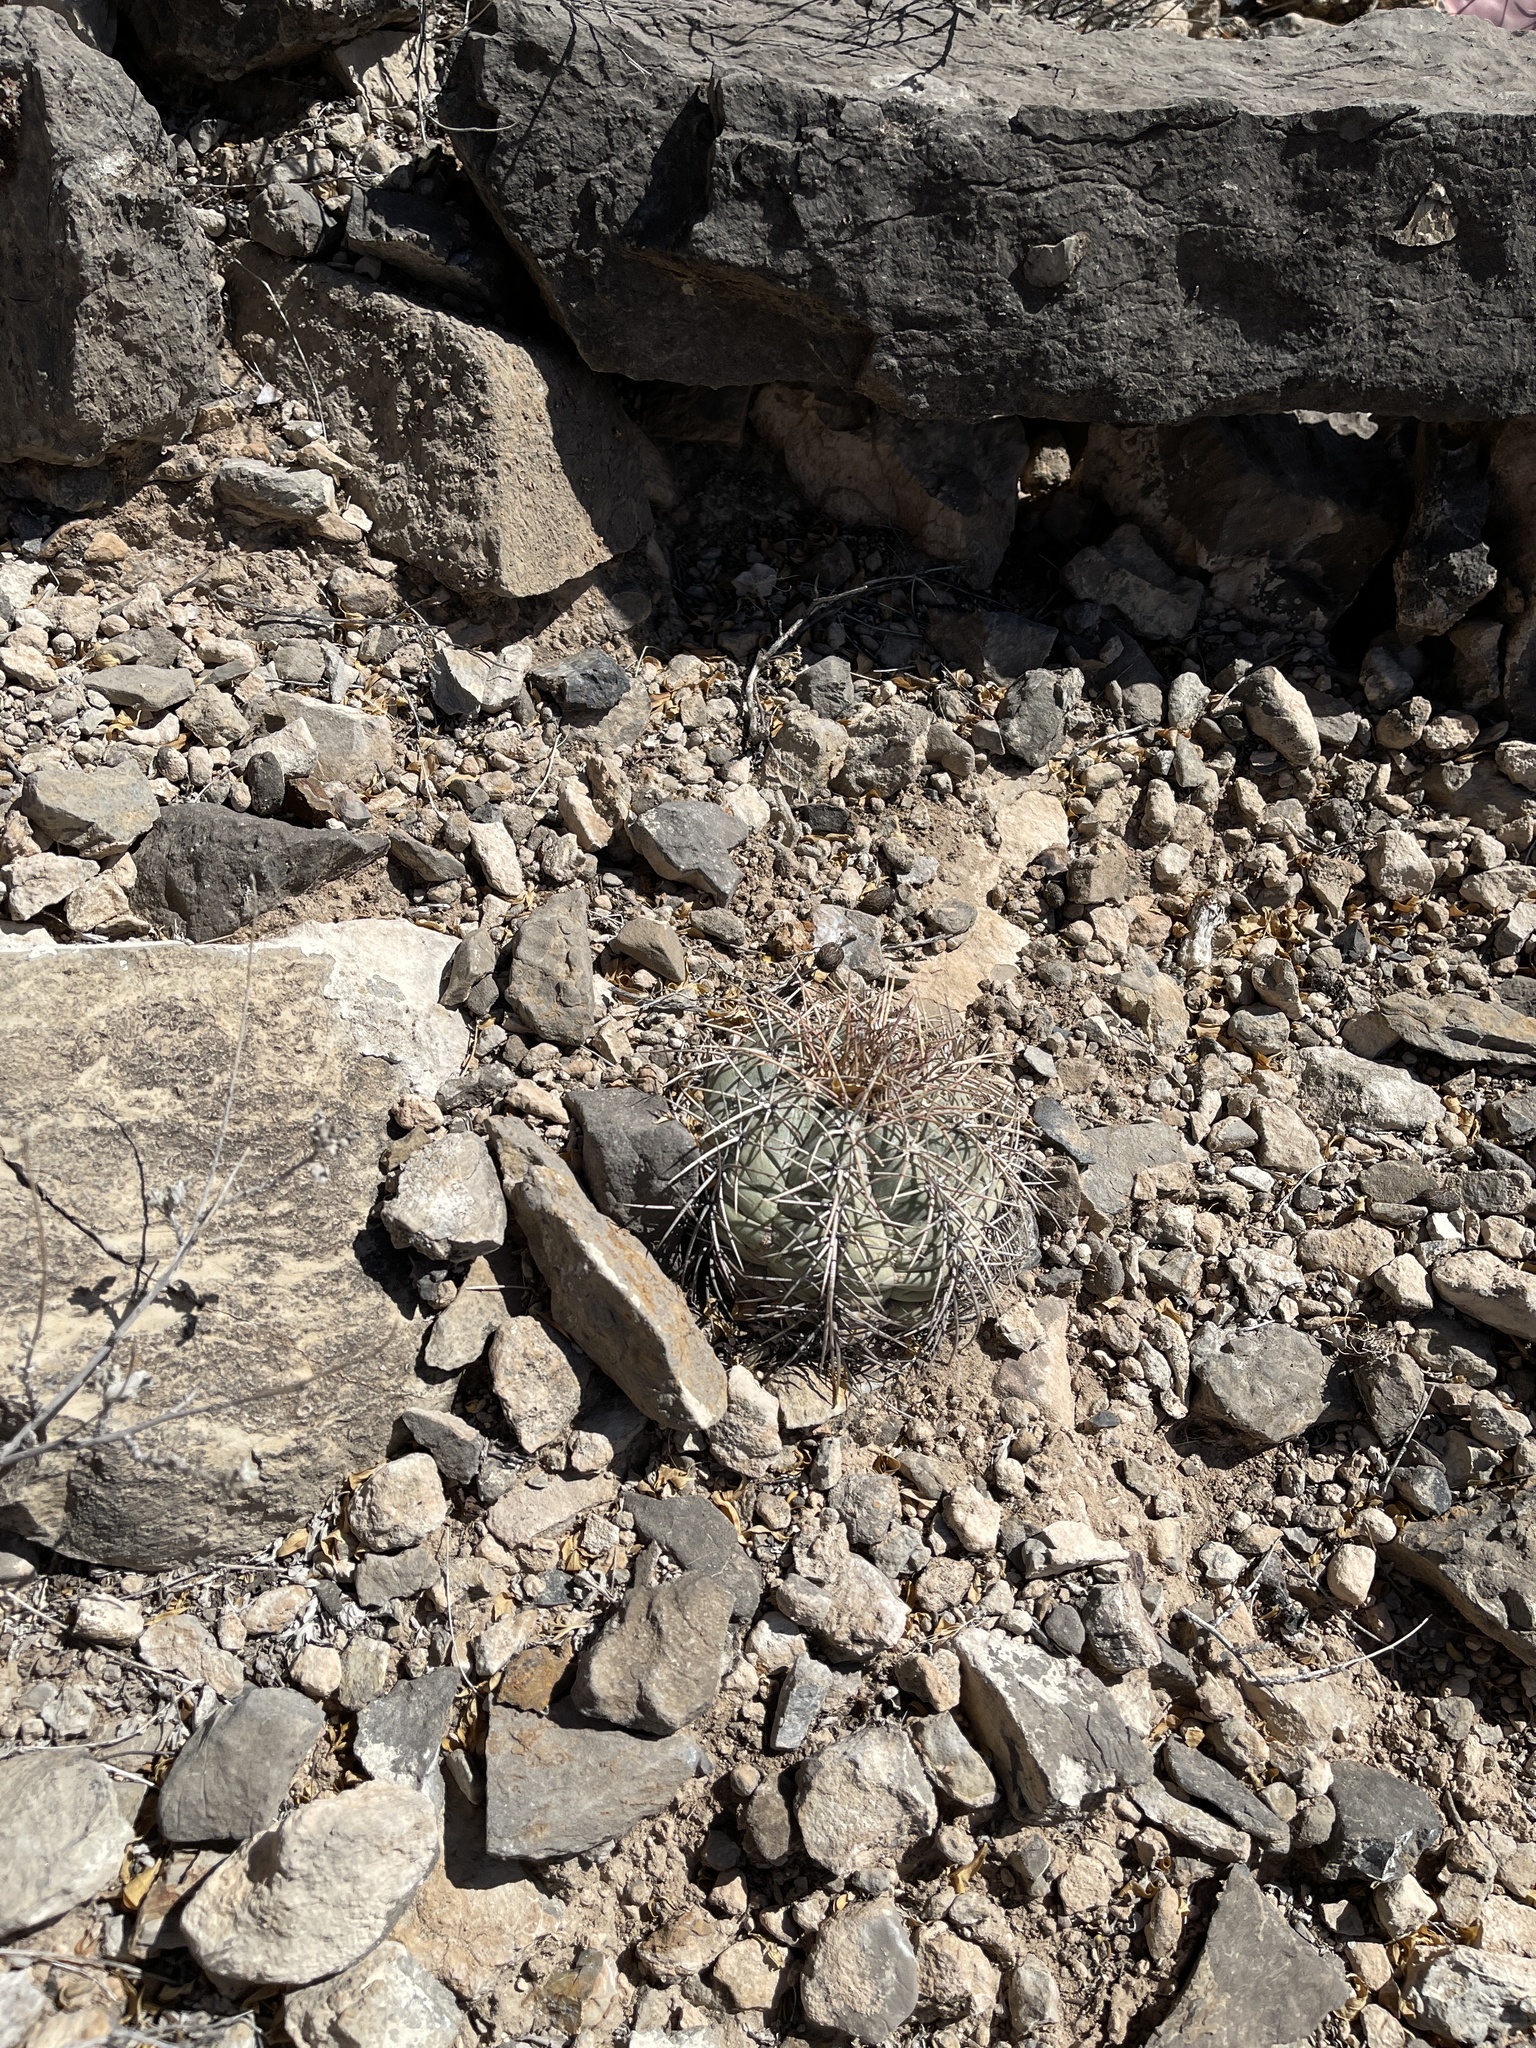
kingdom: Plantae
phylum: Tracheophyta
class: Magnoliopsida
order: Caryophyllales
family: Cactaceae
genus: Echinocactus
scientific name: Echinocactus horizonthalonius
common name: Devilshead
